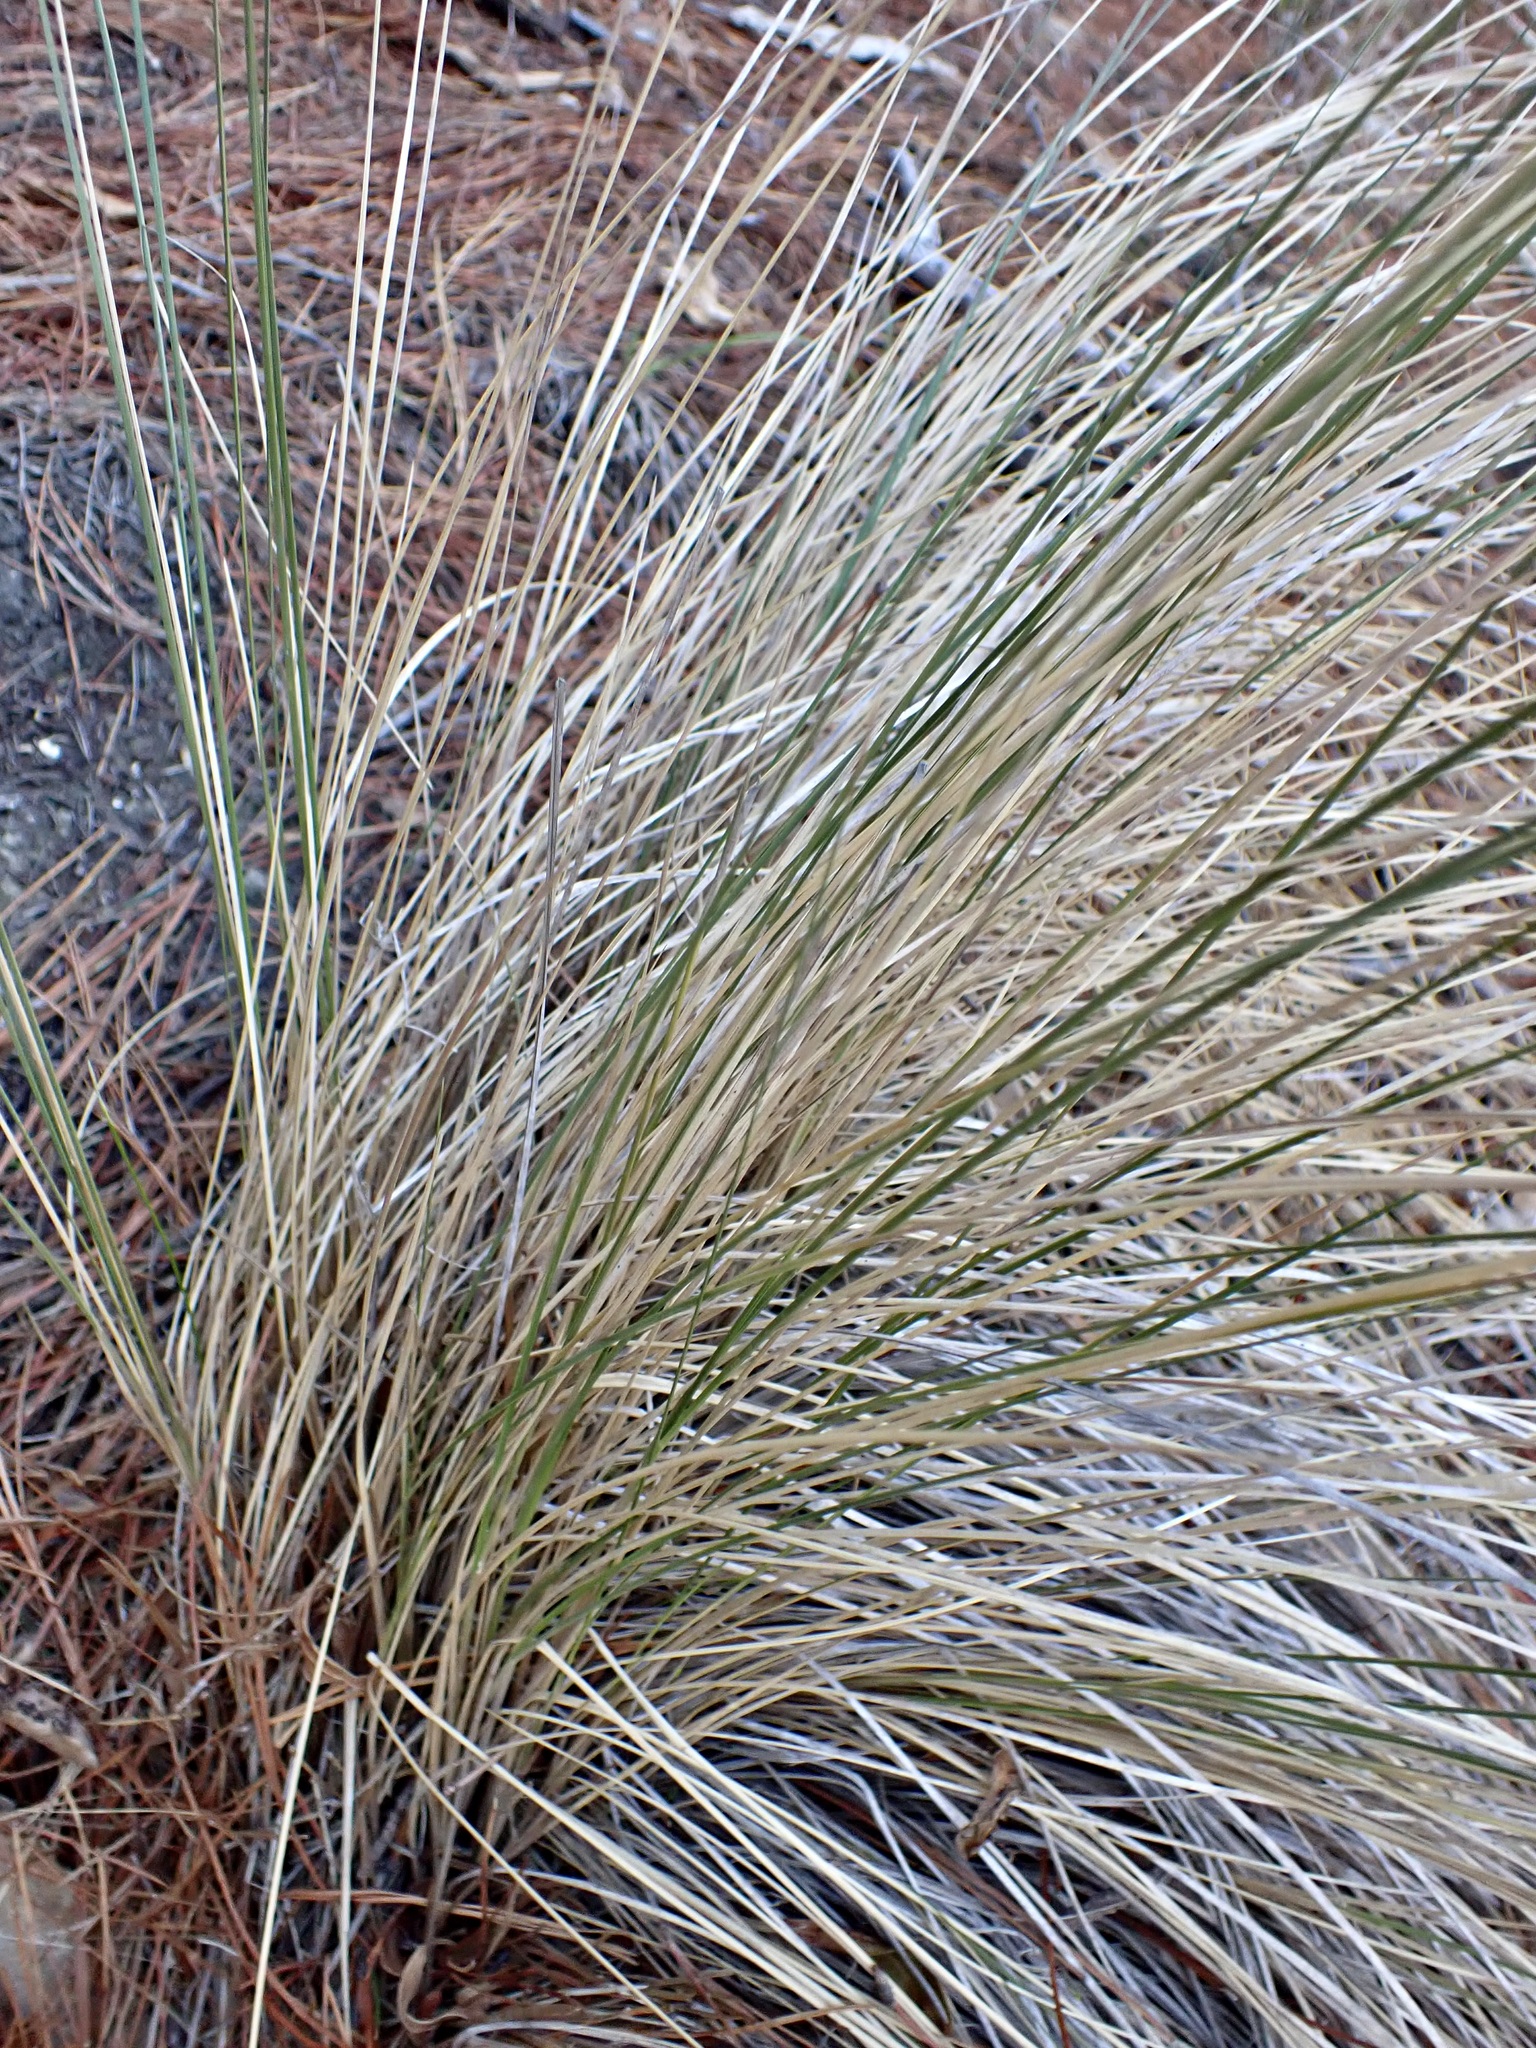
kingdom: Plantae
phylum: Tracheophyta
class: Liliopsida
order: Poales
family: Poaceae
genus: Poa
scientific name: Poa cita
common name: Silver tussock
